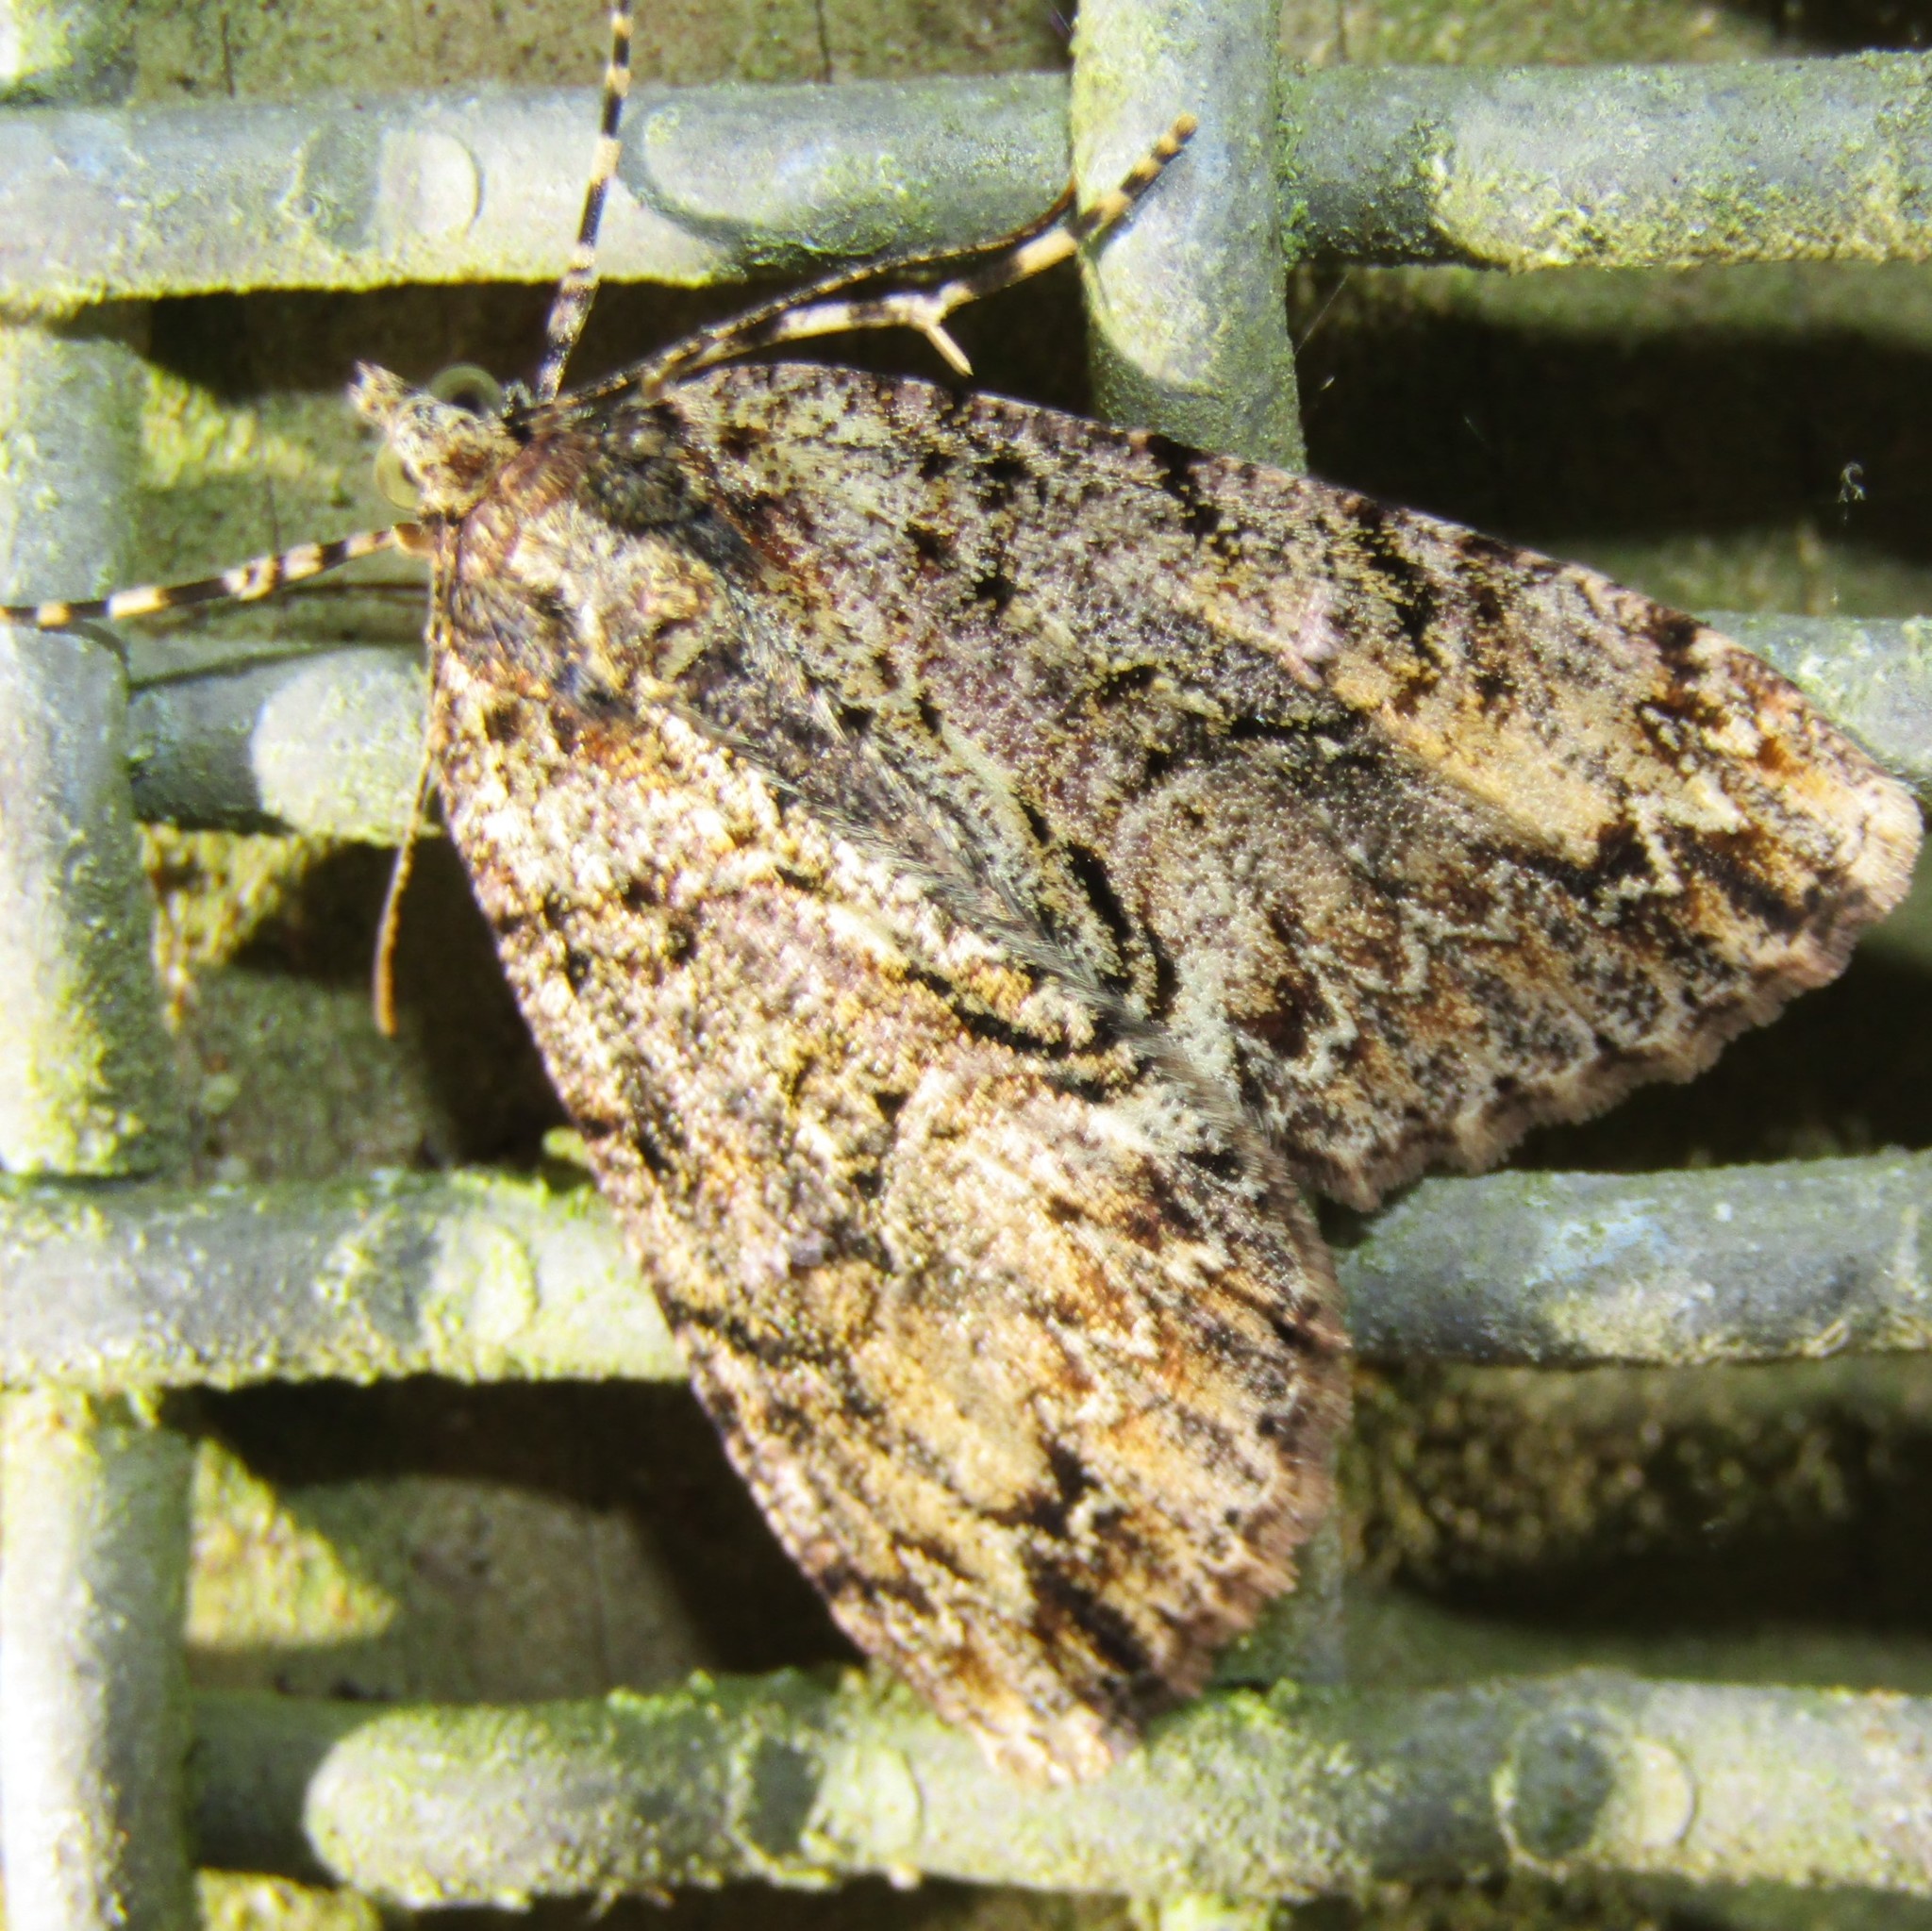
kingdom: Animalia
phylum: Arthropoda
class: Insecta
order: Lepidoptera
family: Geometridae
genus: Pseudocoremia
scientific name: Pseudocoremia suavis
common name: Common forest looper
